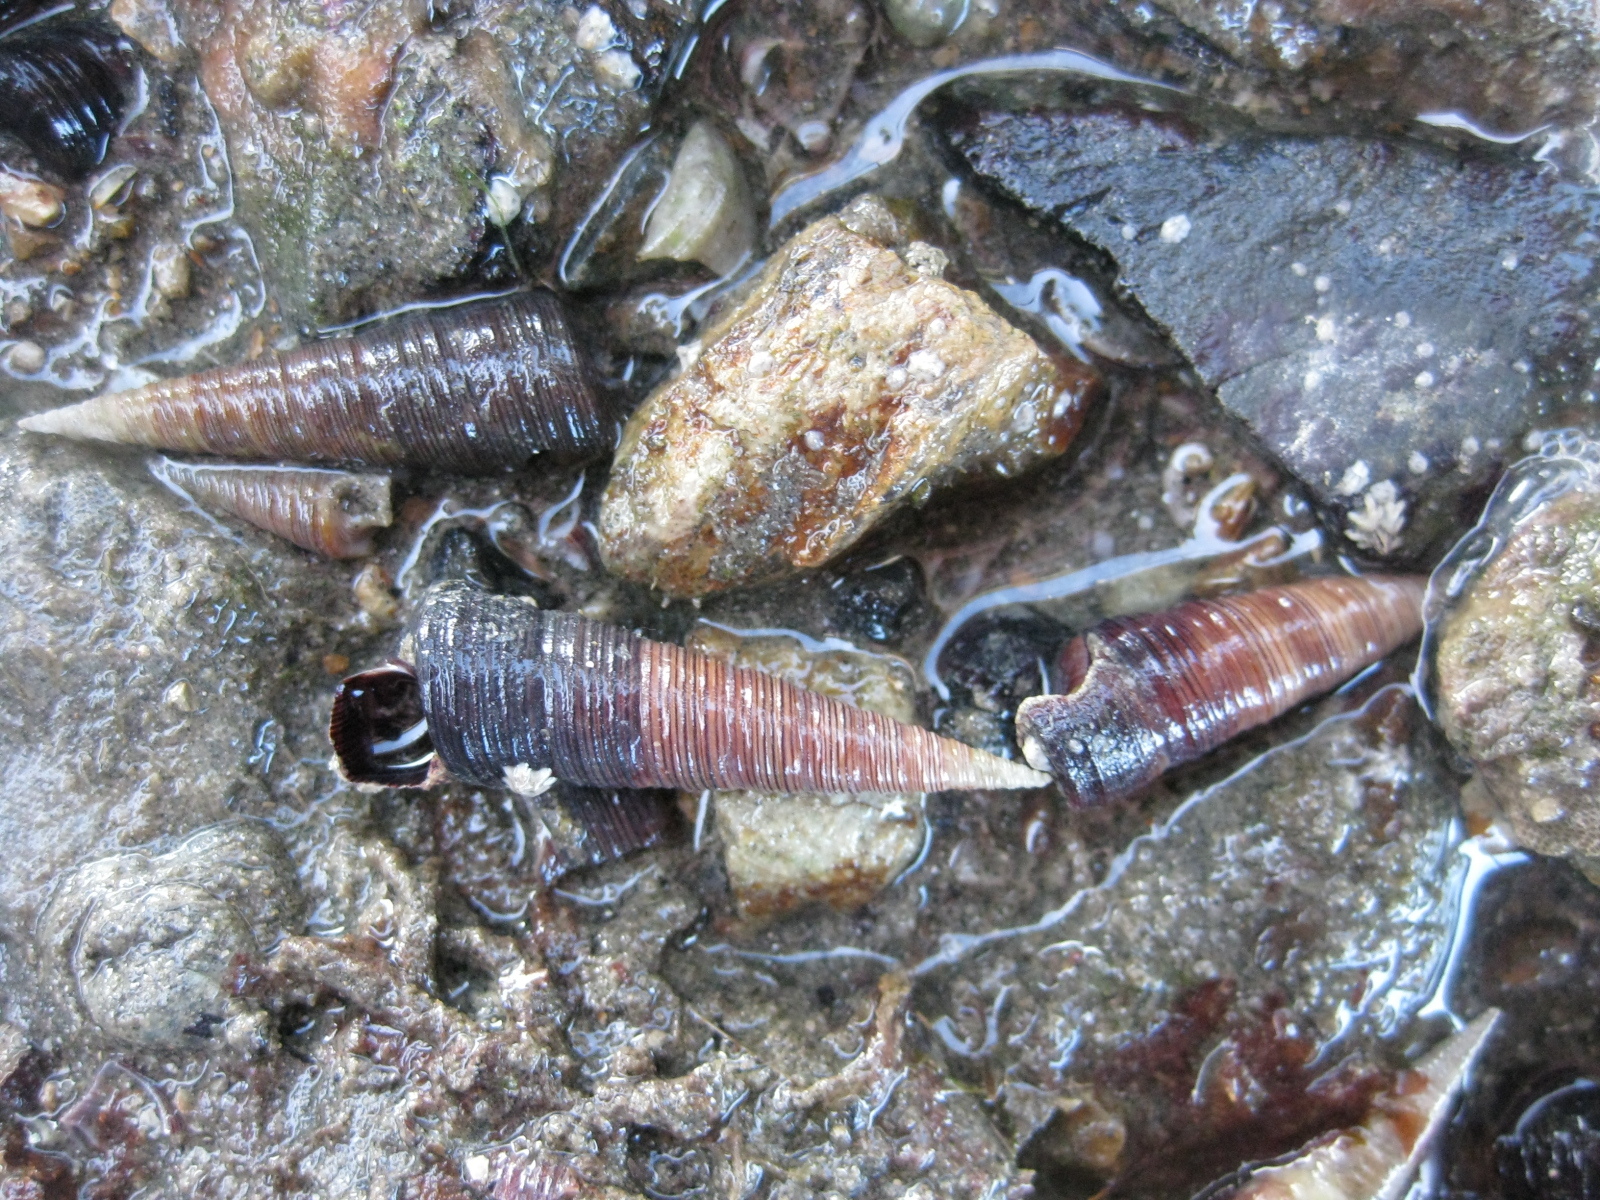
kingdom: Animalia
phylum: Mollusca
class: Gastropoda
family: Turritellidae
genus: Maoricolpus
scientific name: Maoricolpus roseus
